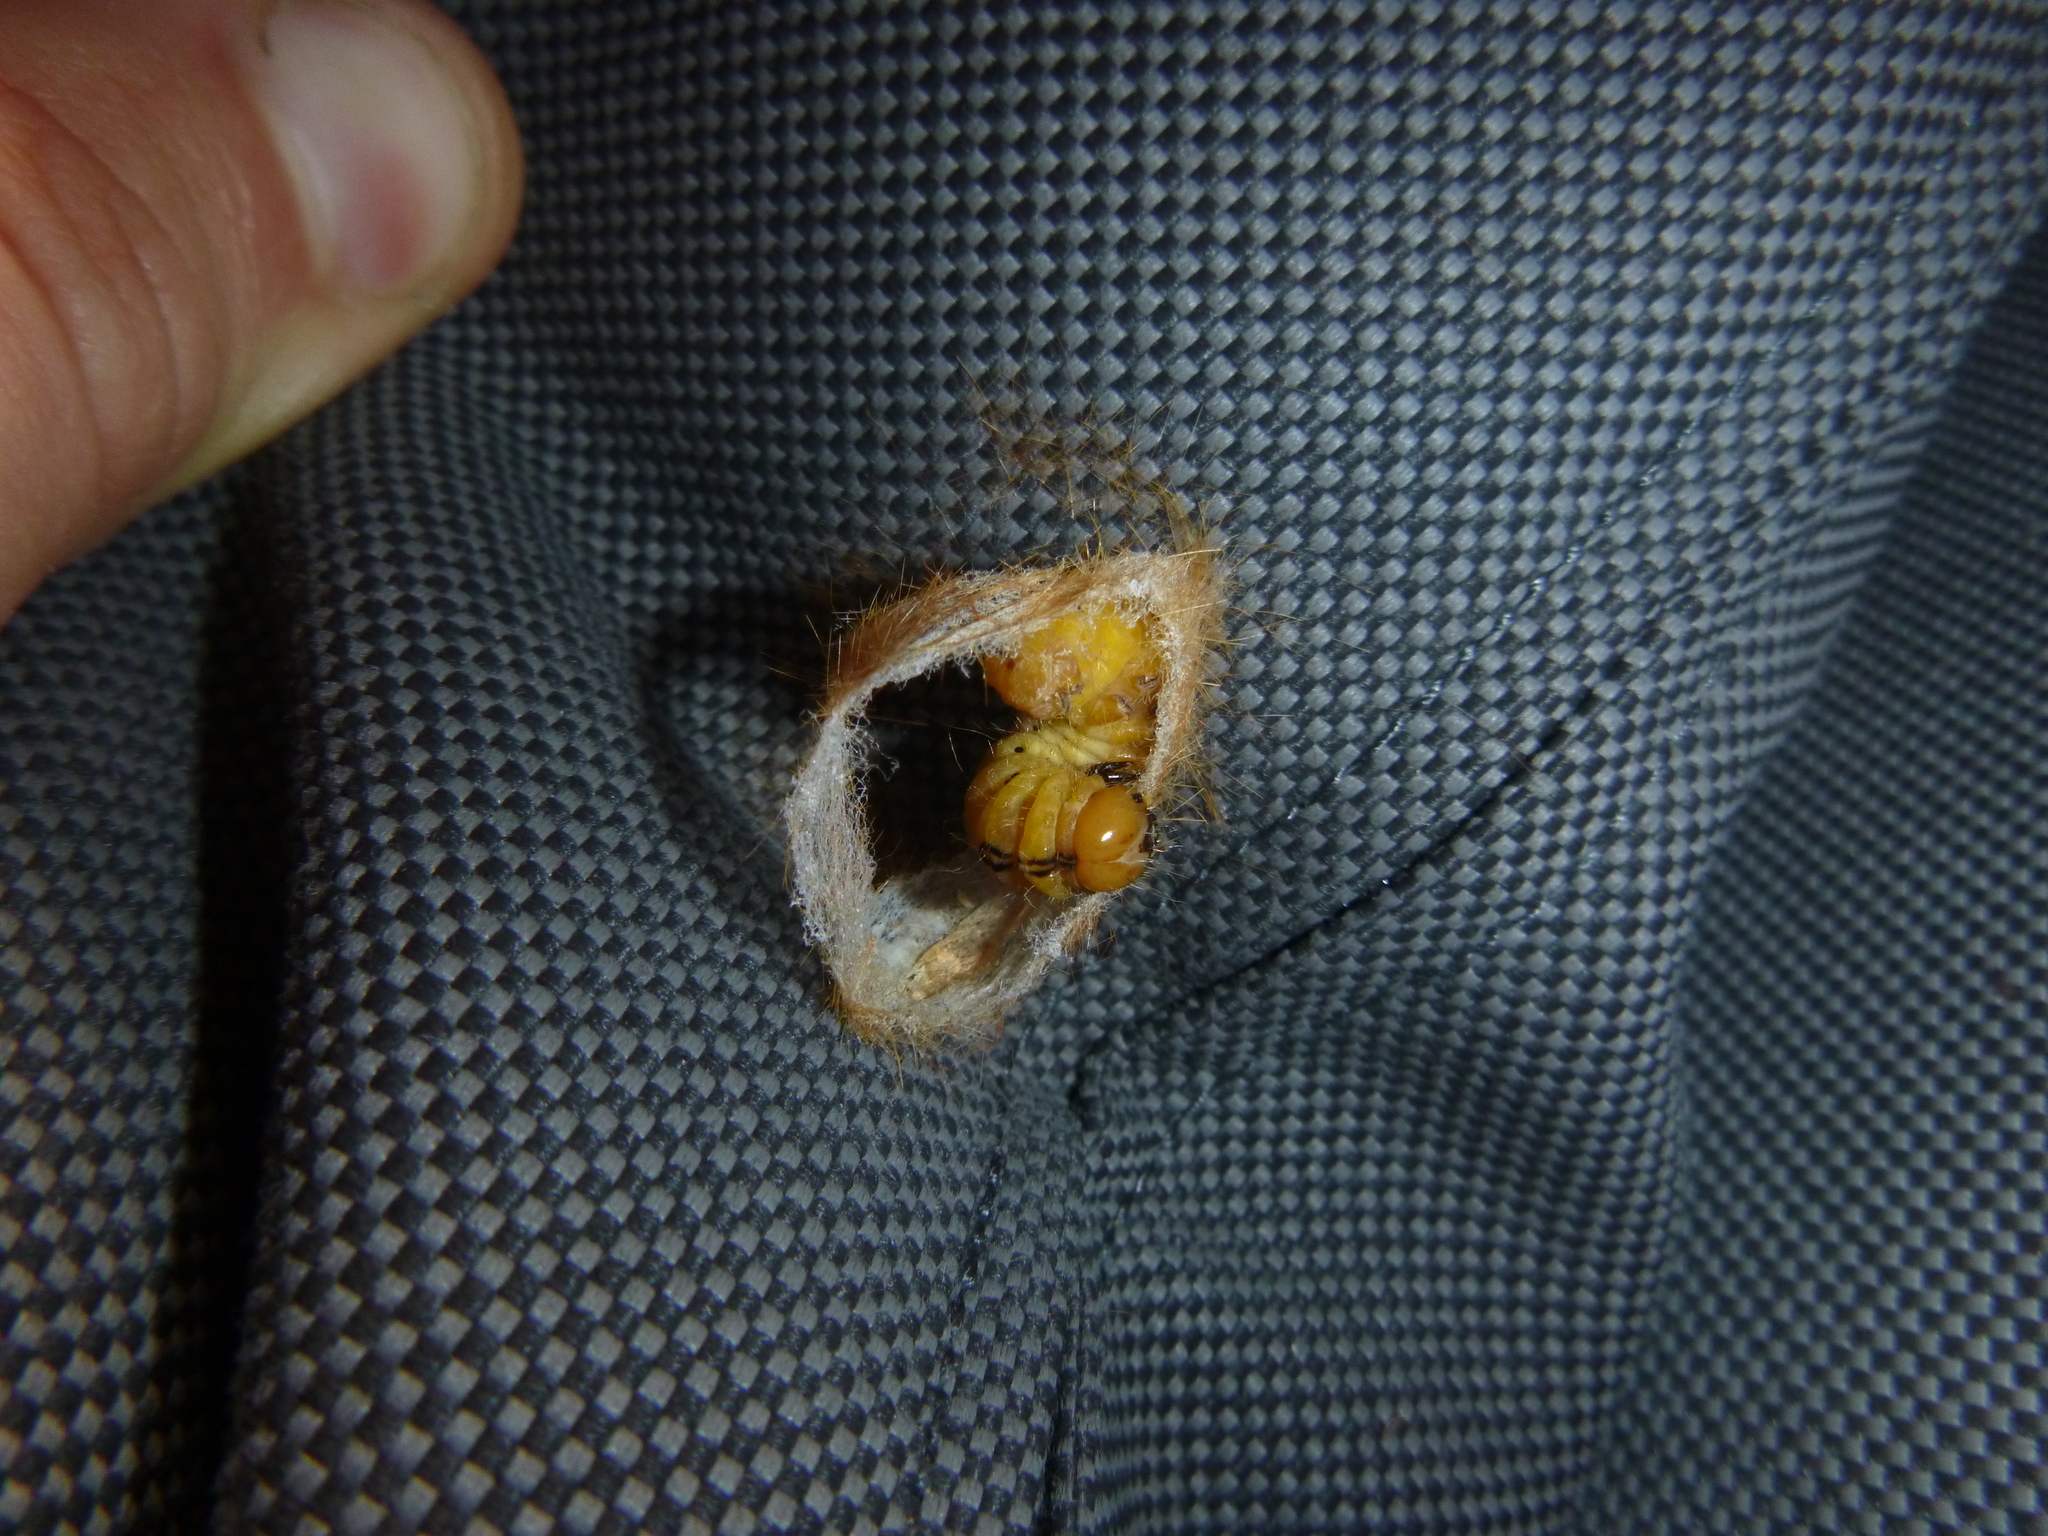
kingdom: Animalia
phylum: Arthropoda
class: Insecta
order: Lepidoptera
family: Noctuidae
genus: Acronicta
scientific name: Acronicta aceris
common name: Sycamore
